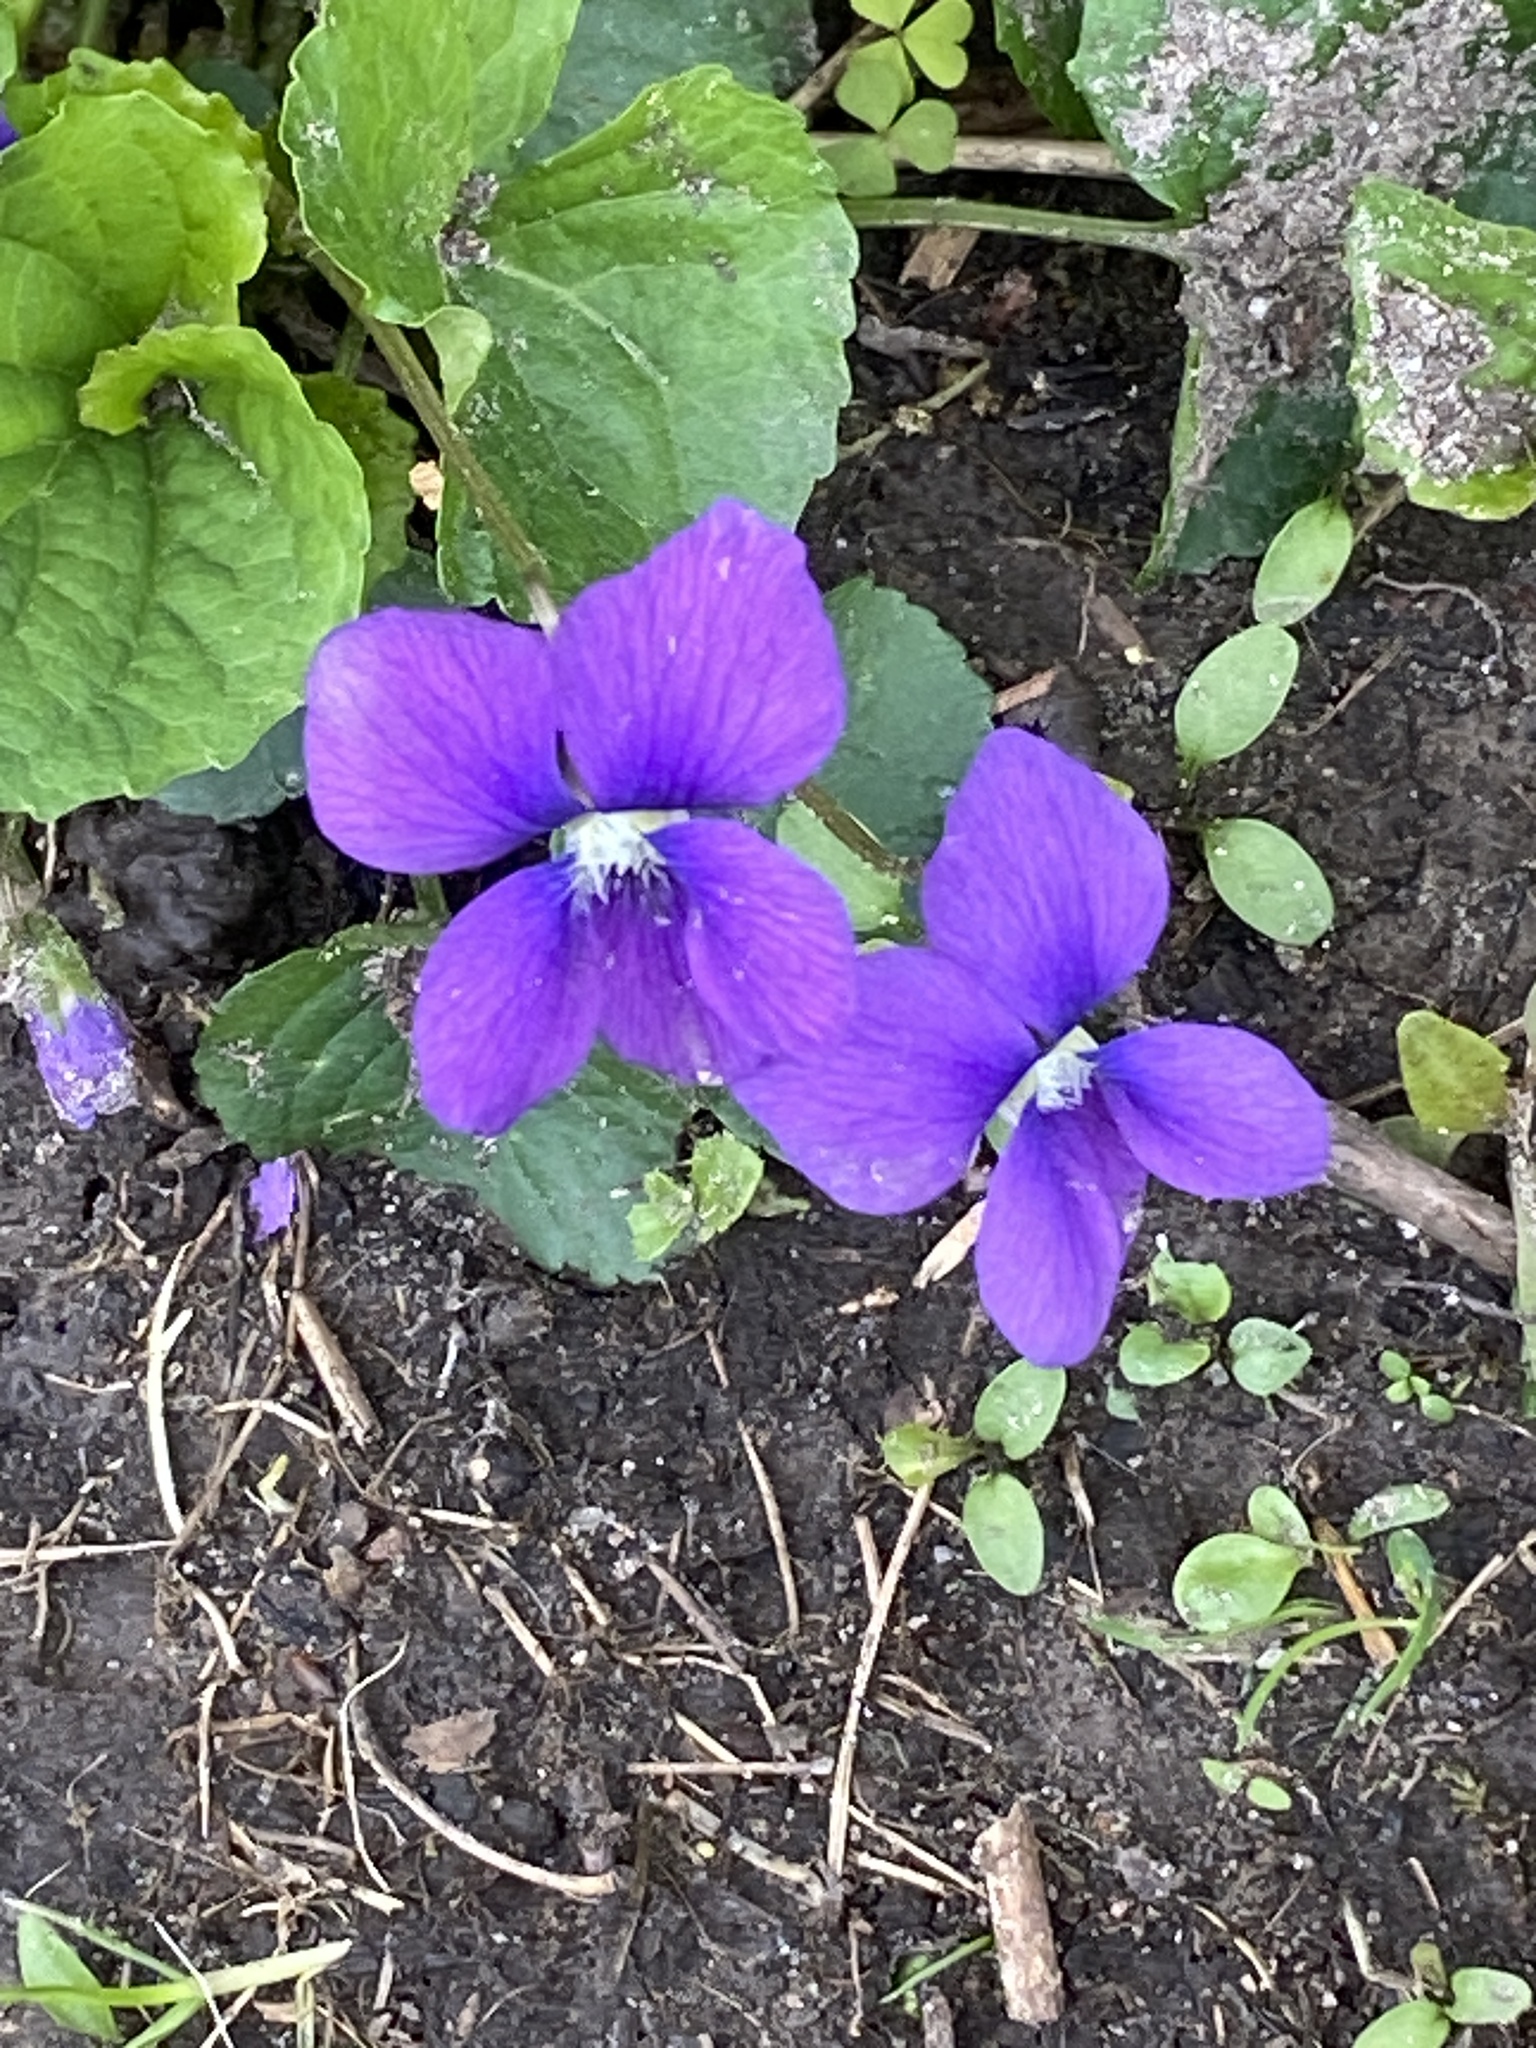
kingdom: Plantae
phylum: Tracheophyta
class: Magnoliopsida
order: Malpighiales
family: Violaceae
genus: Viola
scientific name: Viola sororia
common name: Dooryard violet
